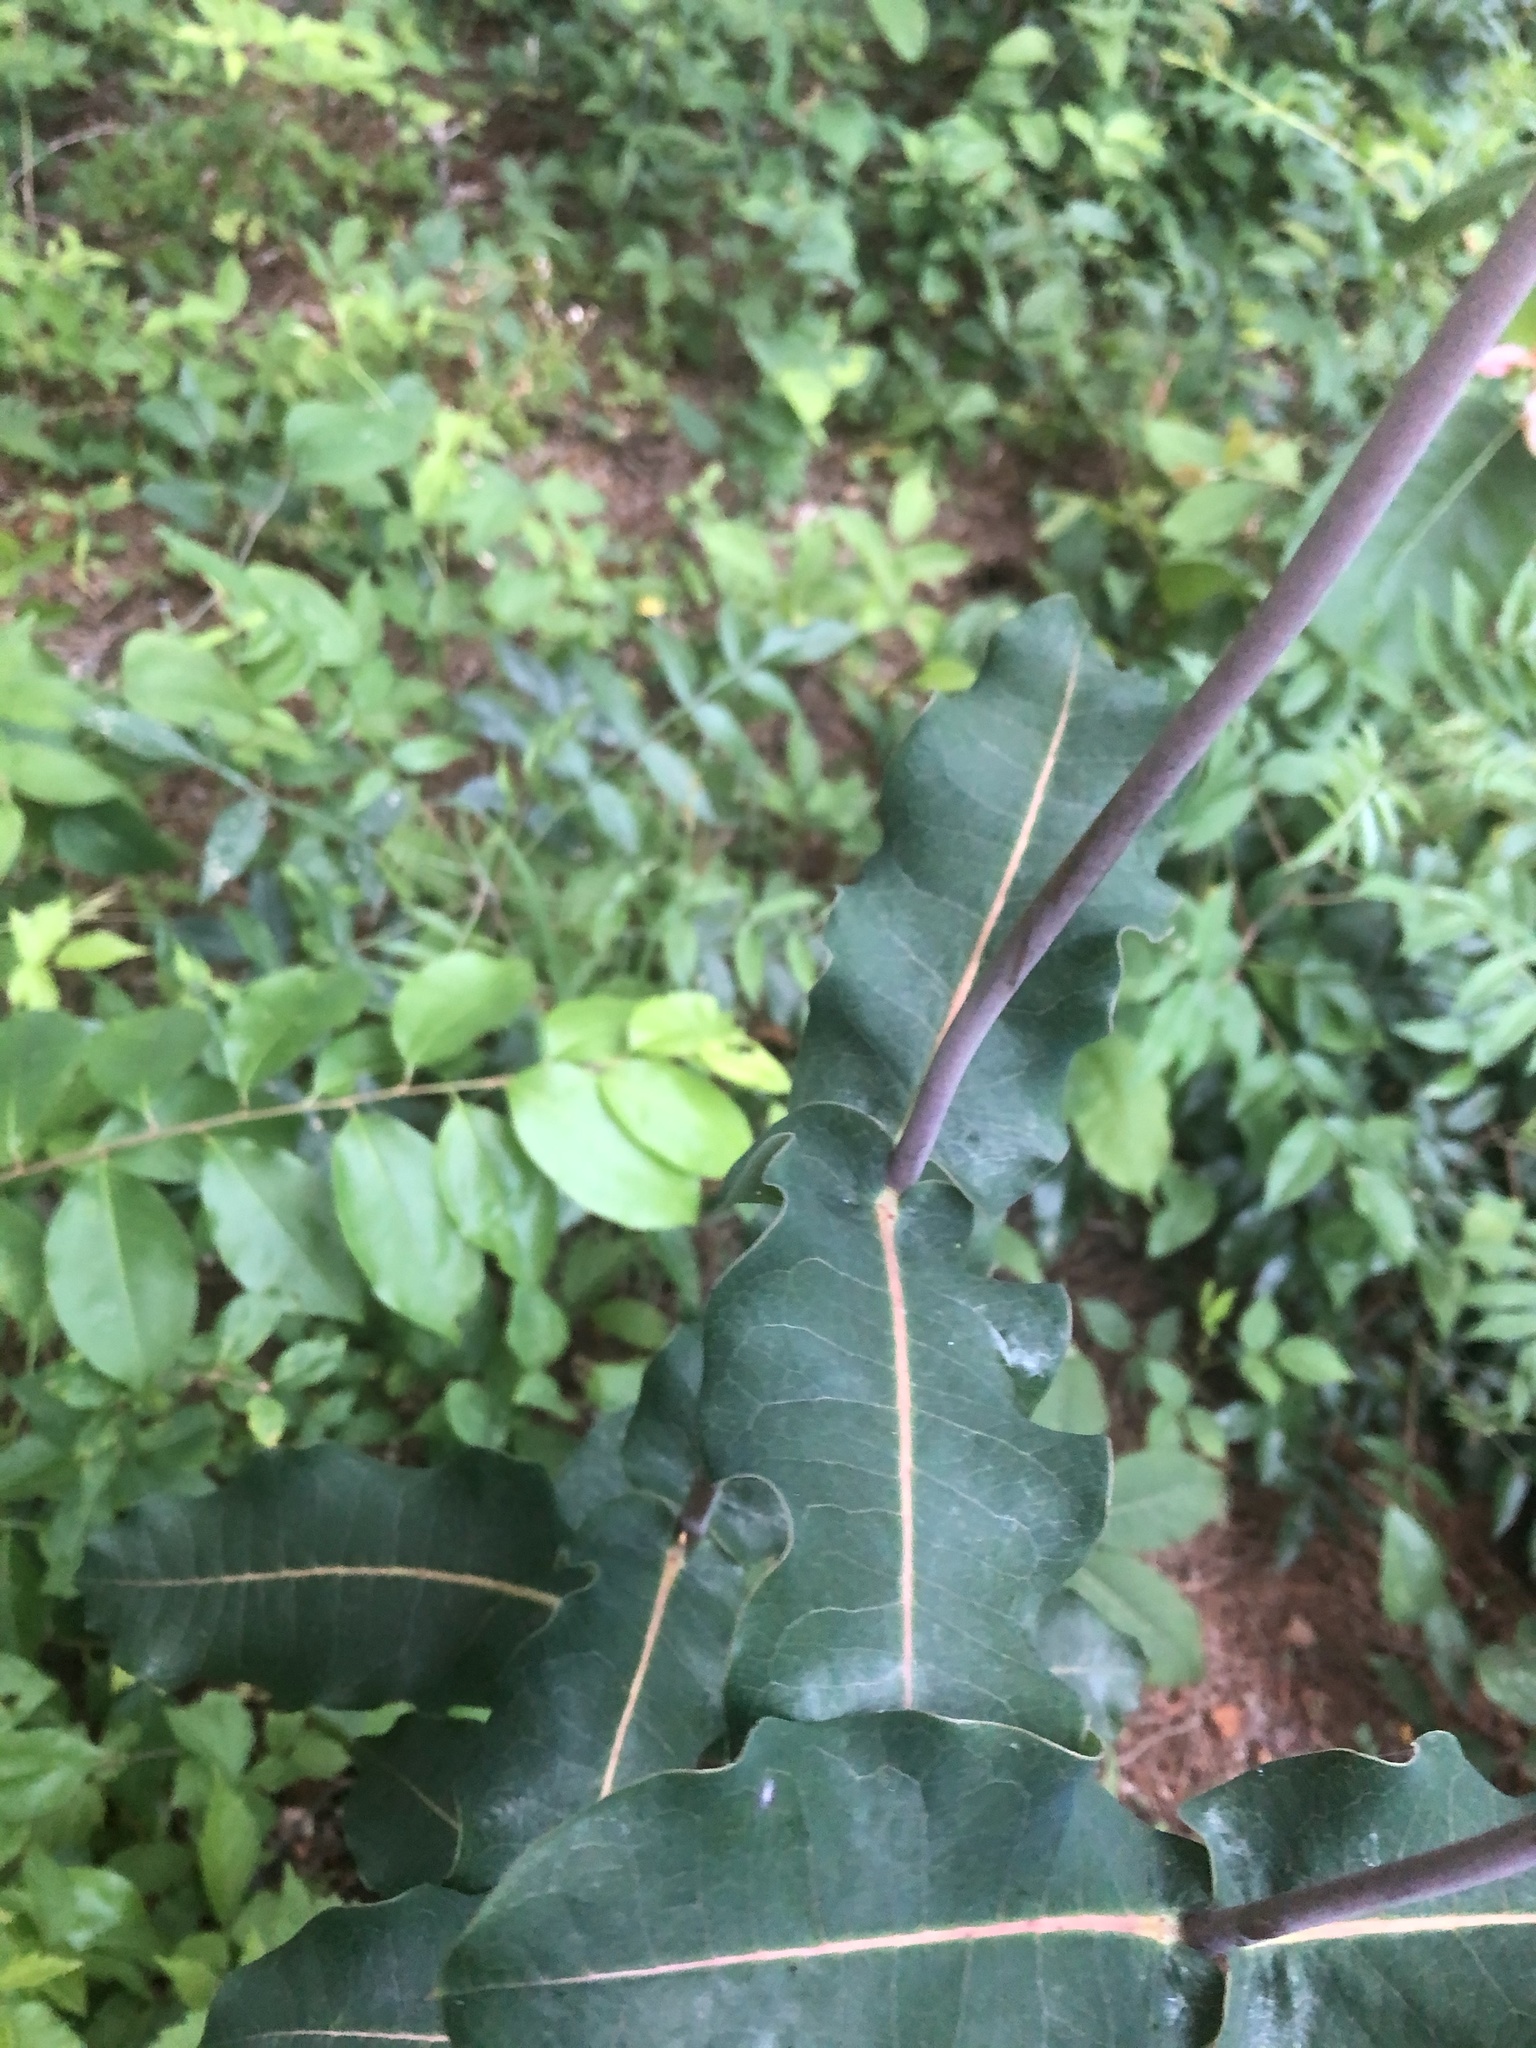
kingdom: Plantae
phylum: Tracheophyta
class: Magnoliopsida
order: Gentianales
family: Apocynaceae
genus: Asclepias
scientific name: Asclepias amplexicaulis
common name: Blunt-leaf milkweed
